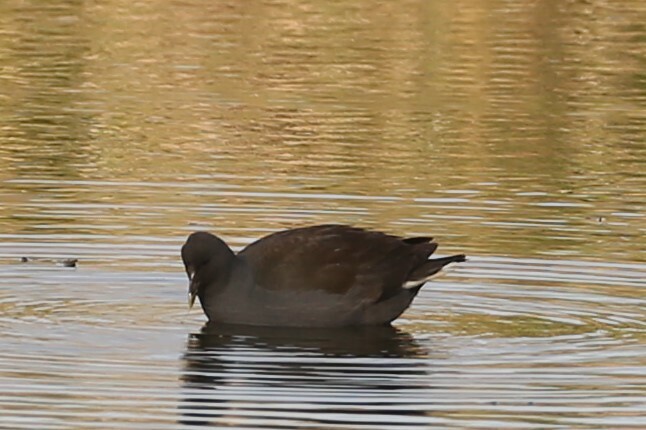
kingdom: Animalia
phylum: Chordata
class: Aves
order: Gruiformes
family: Rallidae
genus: Gallinula
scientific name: Gallinula tenebrosa
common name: Dusky moorhen
